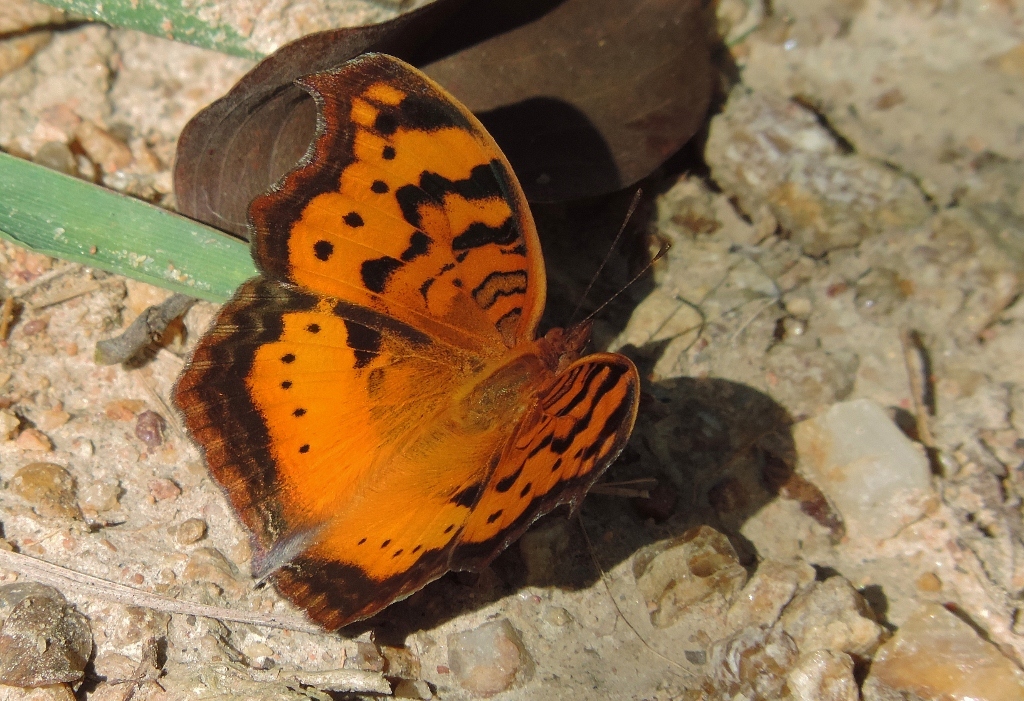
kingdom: Animalia
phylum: Arthropoda
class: Insecta
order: Lepidoptera
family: Nymphalidae
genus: Junonia
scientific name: Junonia antilope
